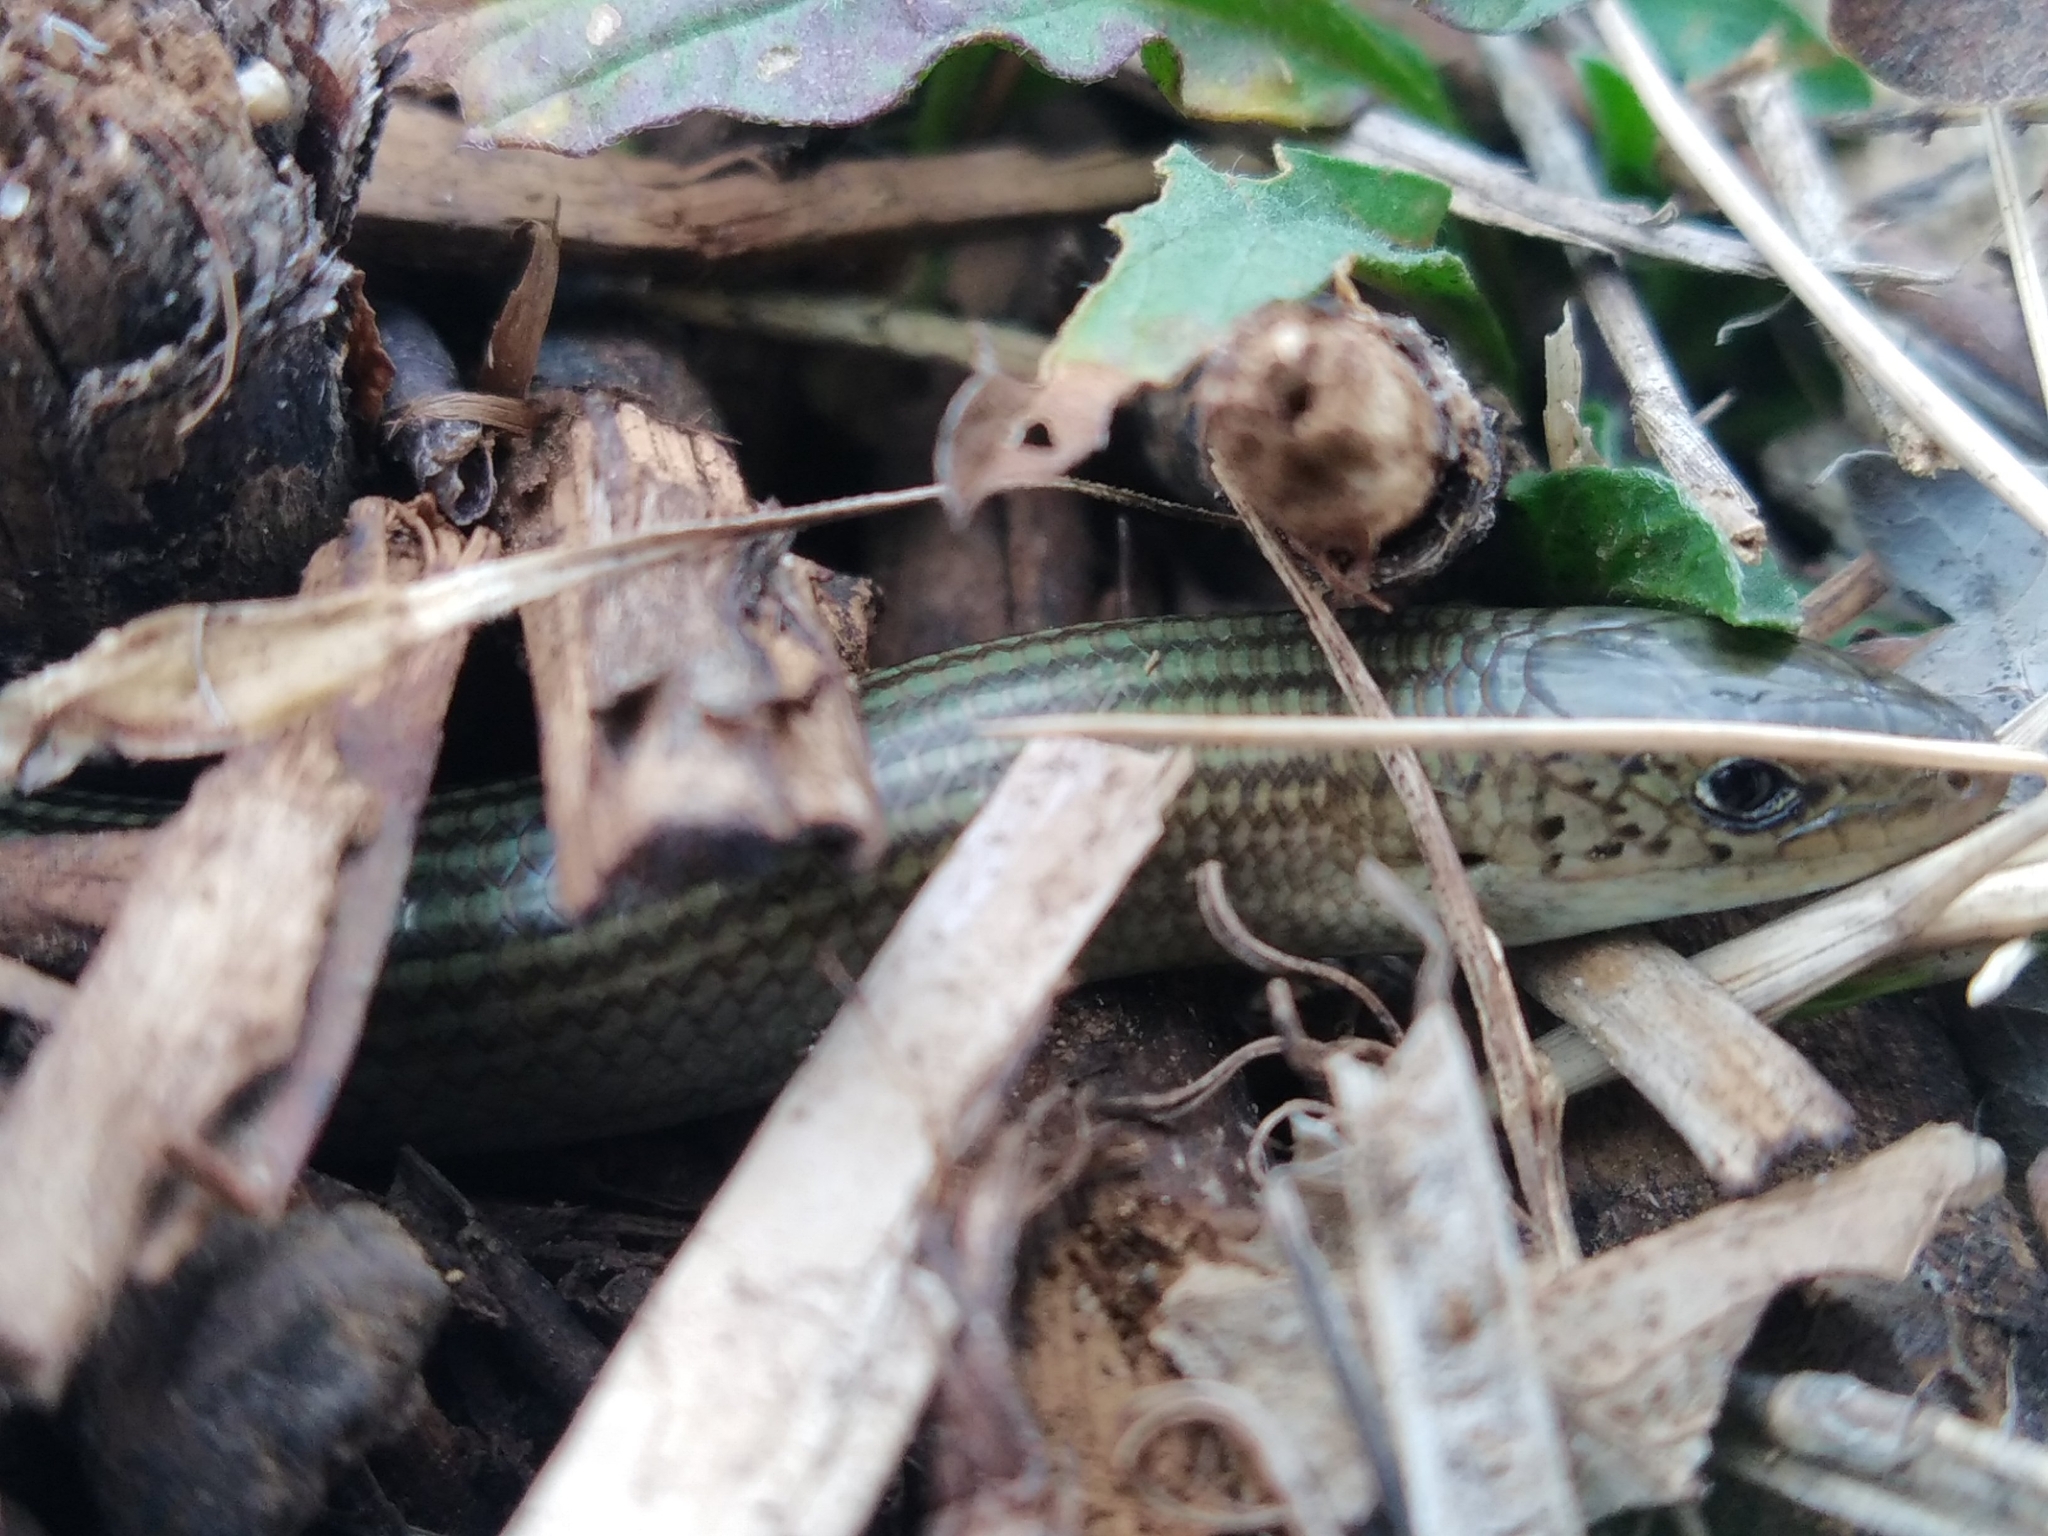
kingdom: Animalia
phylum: Chordata
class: Squamata
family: Scincidae
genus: Chalcides
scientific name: Chalcides striatus
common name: Western (or iberian) three-toed skink
